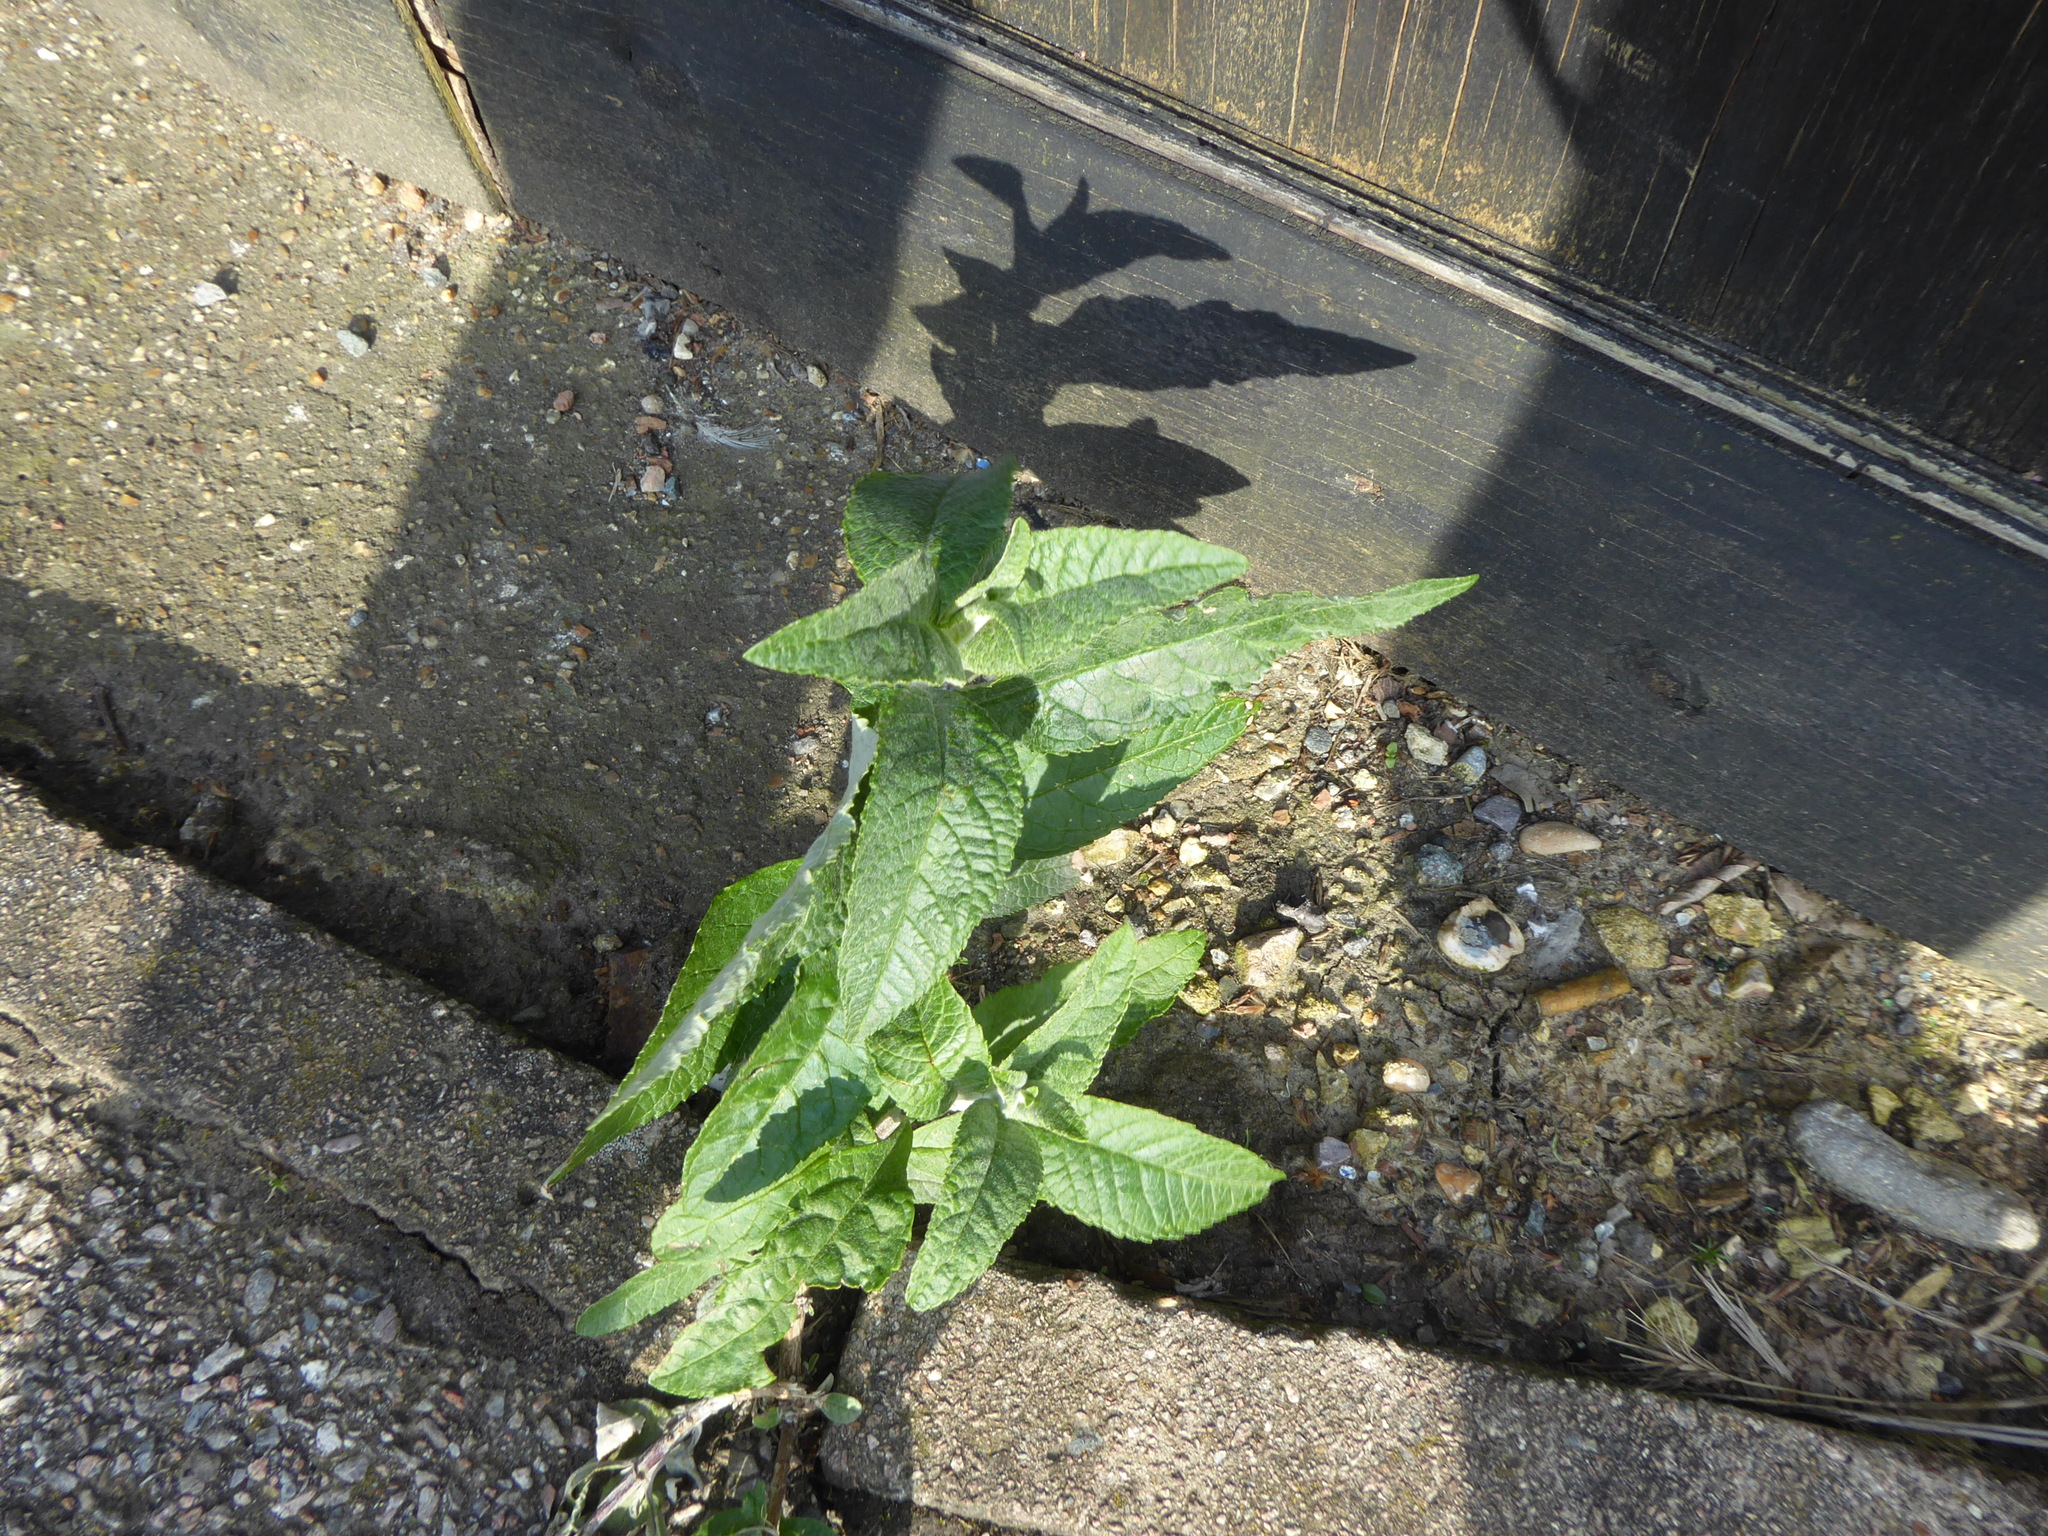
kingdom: Plantae
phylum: Tracheophyta
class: Magnoliopsida
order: Lamiales
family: Scrophulariaceae
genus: Buddleja
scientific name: Buddleja davidii
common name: Butterfly-bush
